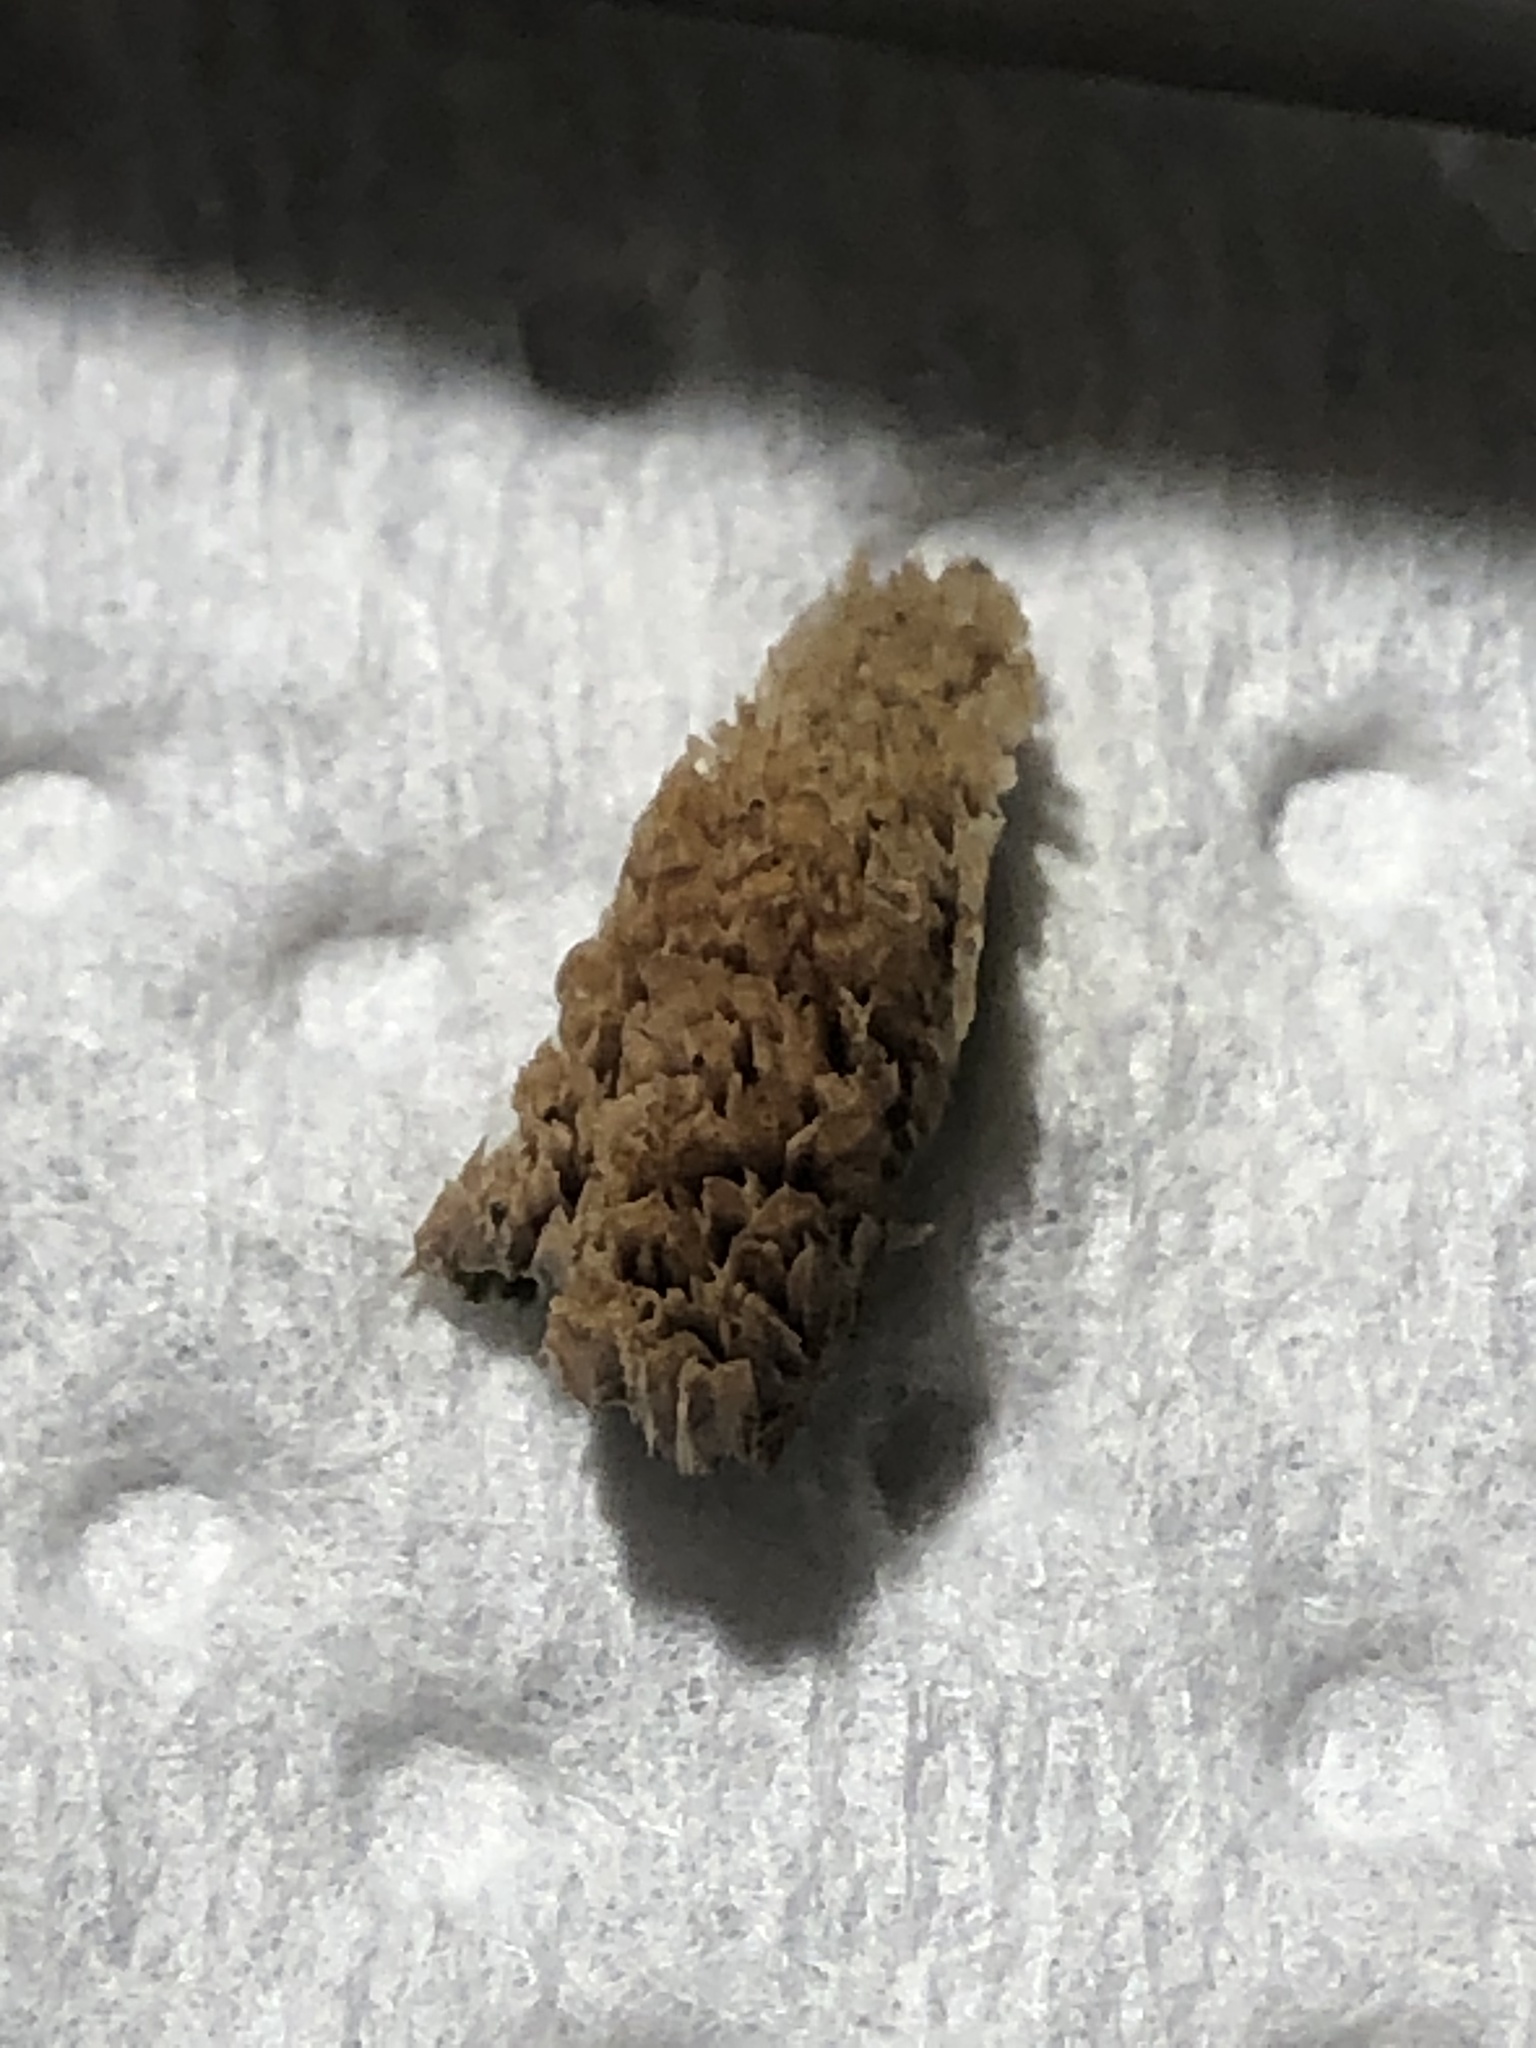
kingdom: Fungi
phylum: Basidiomycota
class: Agaricomycetes
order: Polyporales
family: Cerrenaceae
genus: Cerrena
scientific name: Cerrena unicolor
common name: Mossy maze polypore
